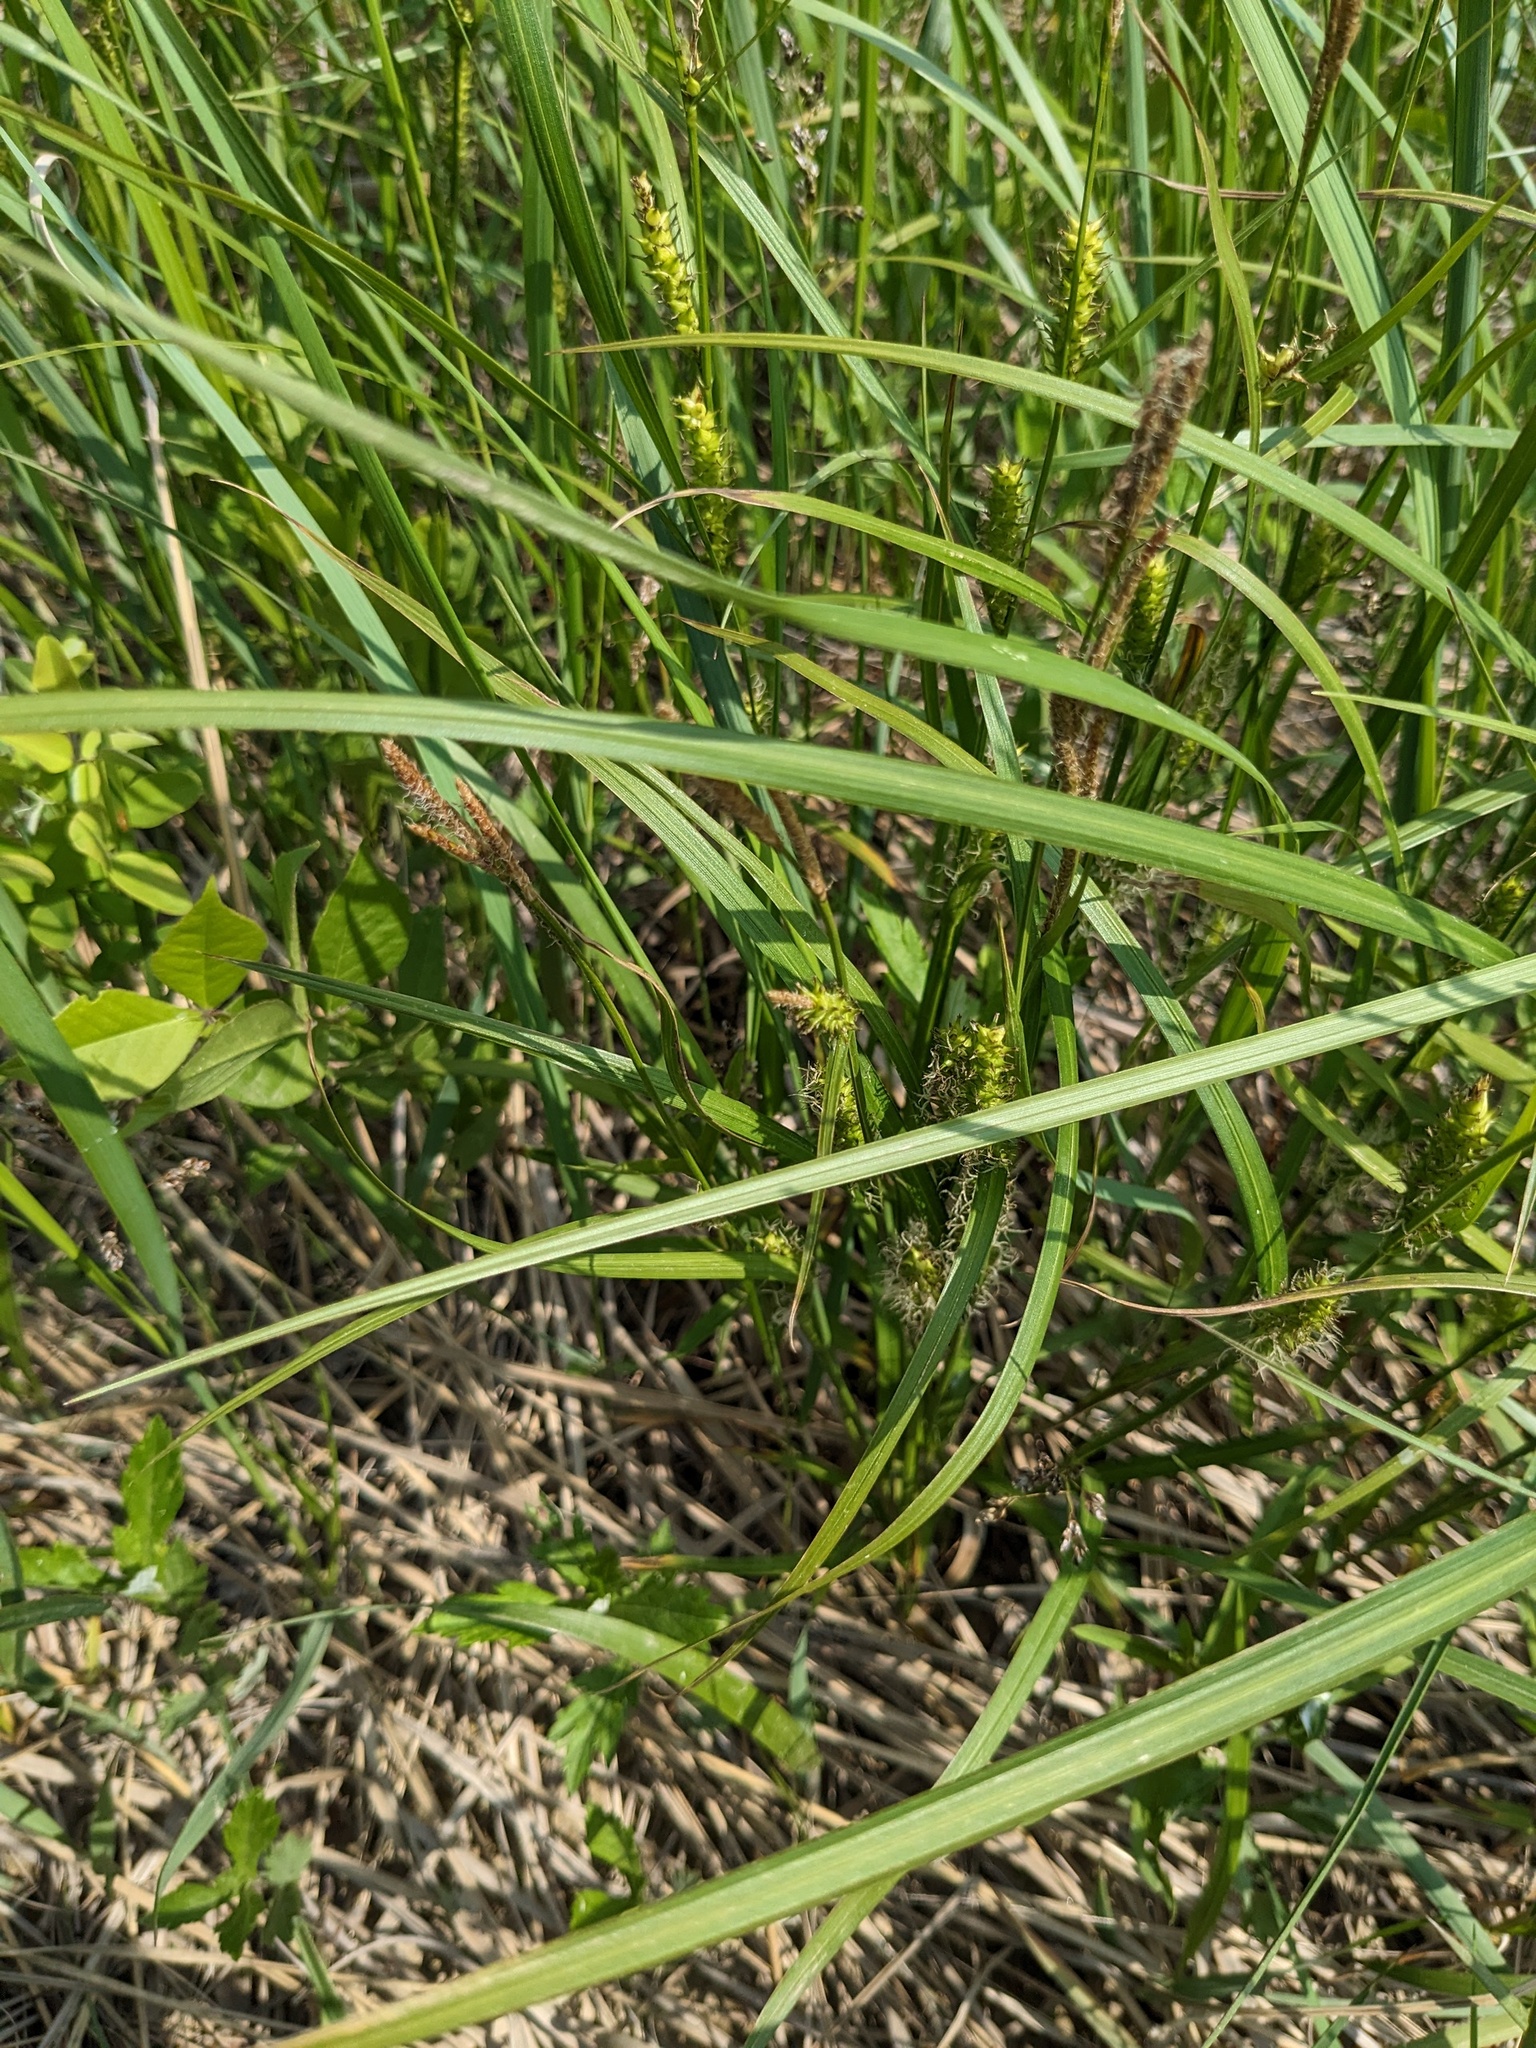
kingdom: Plantae
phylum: Tracheophyta
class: Liliopsida
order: Poales
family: Cyperaceae
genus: Carex
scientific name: Carex vesicata
